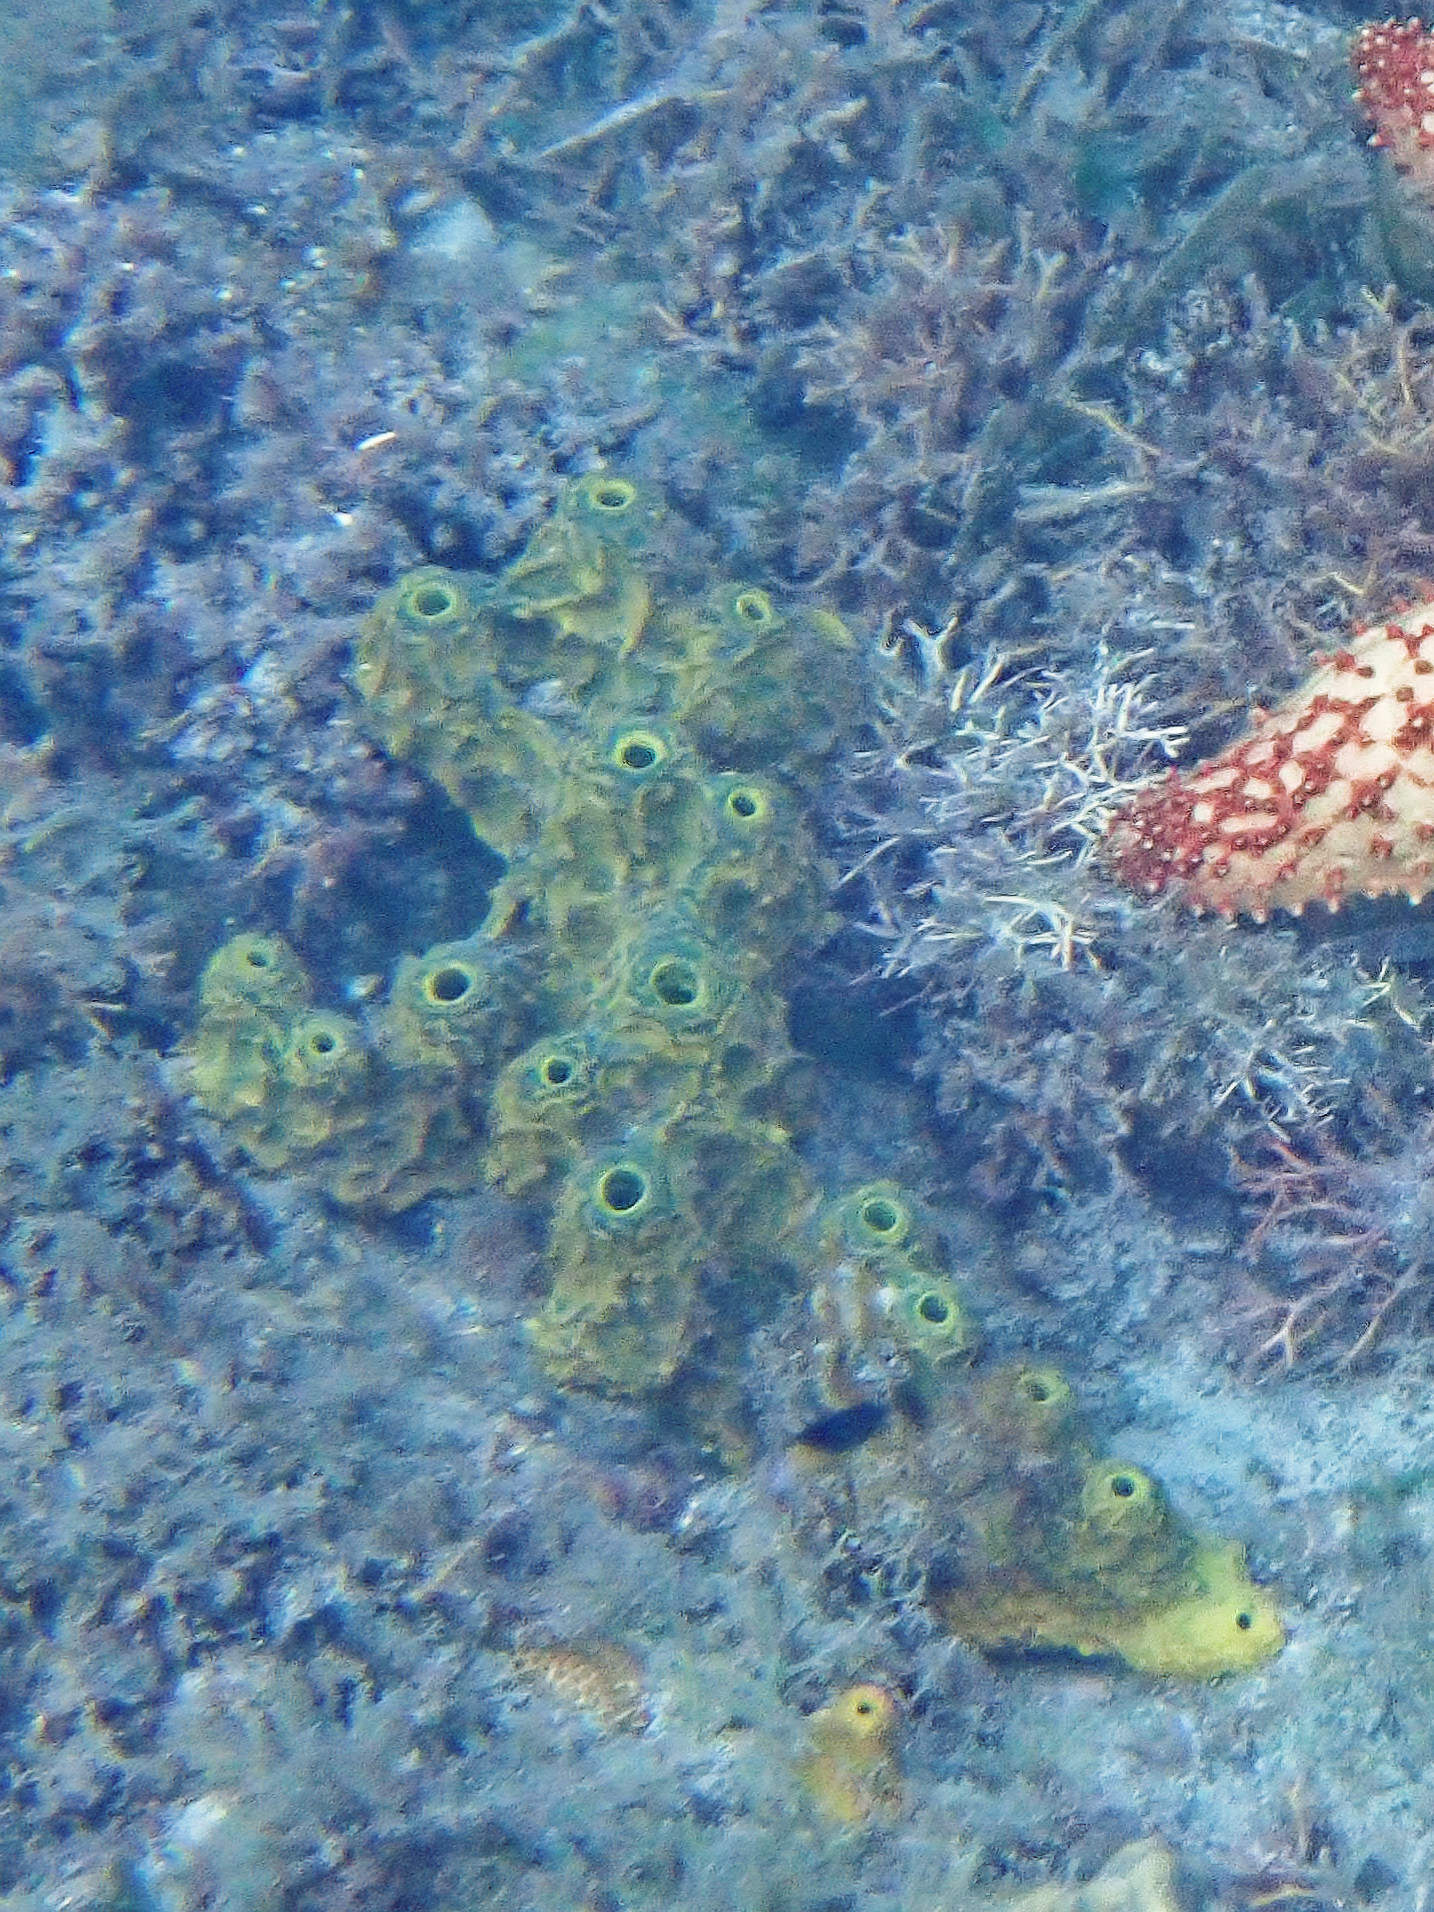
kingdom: Animalia
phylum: Porifera
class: Demospongiae
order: Verongiida
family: Aplysinidae
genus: Verongula
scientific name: Verongula rigida
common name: Pitted sponge
